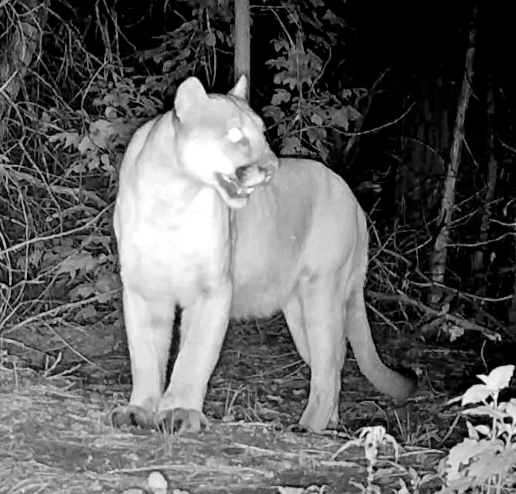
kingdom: Animalia
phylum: Chordata
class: Mammalia
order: Carnivora
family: Felidae
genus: Puma
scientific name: Puma concolor
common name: Puma
